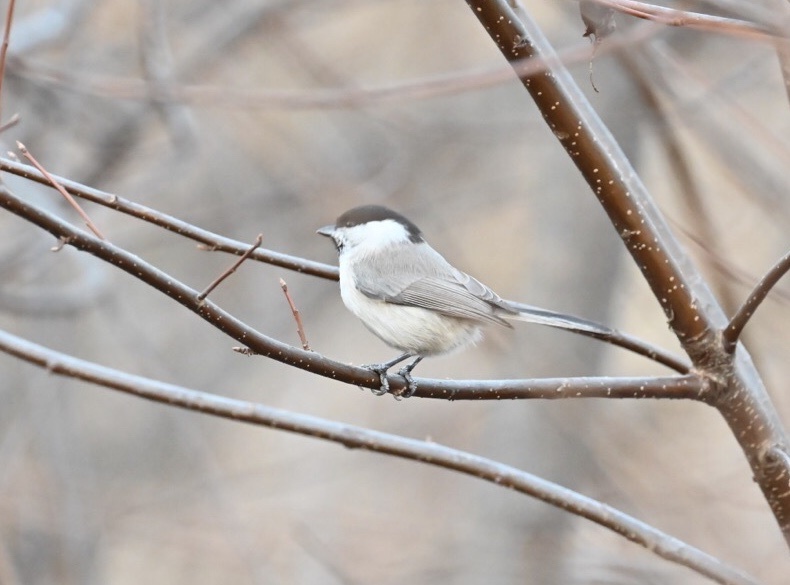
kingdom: Animalia
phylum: Chordata
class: Aves
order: Passeriformes
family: Paridae
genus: Poecile
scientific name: Poecile palustris
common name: Marsh tit
